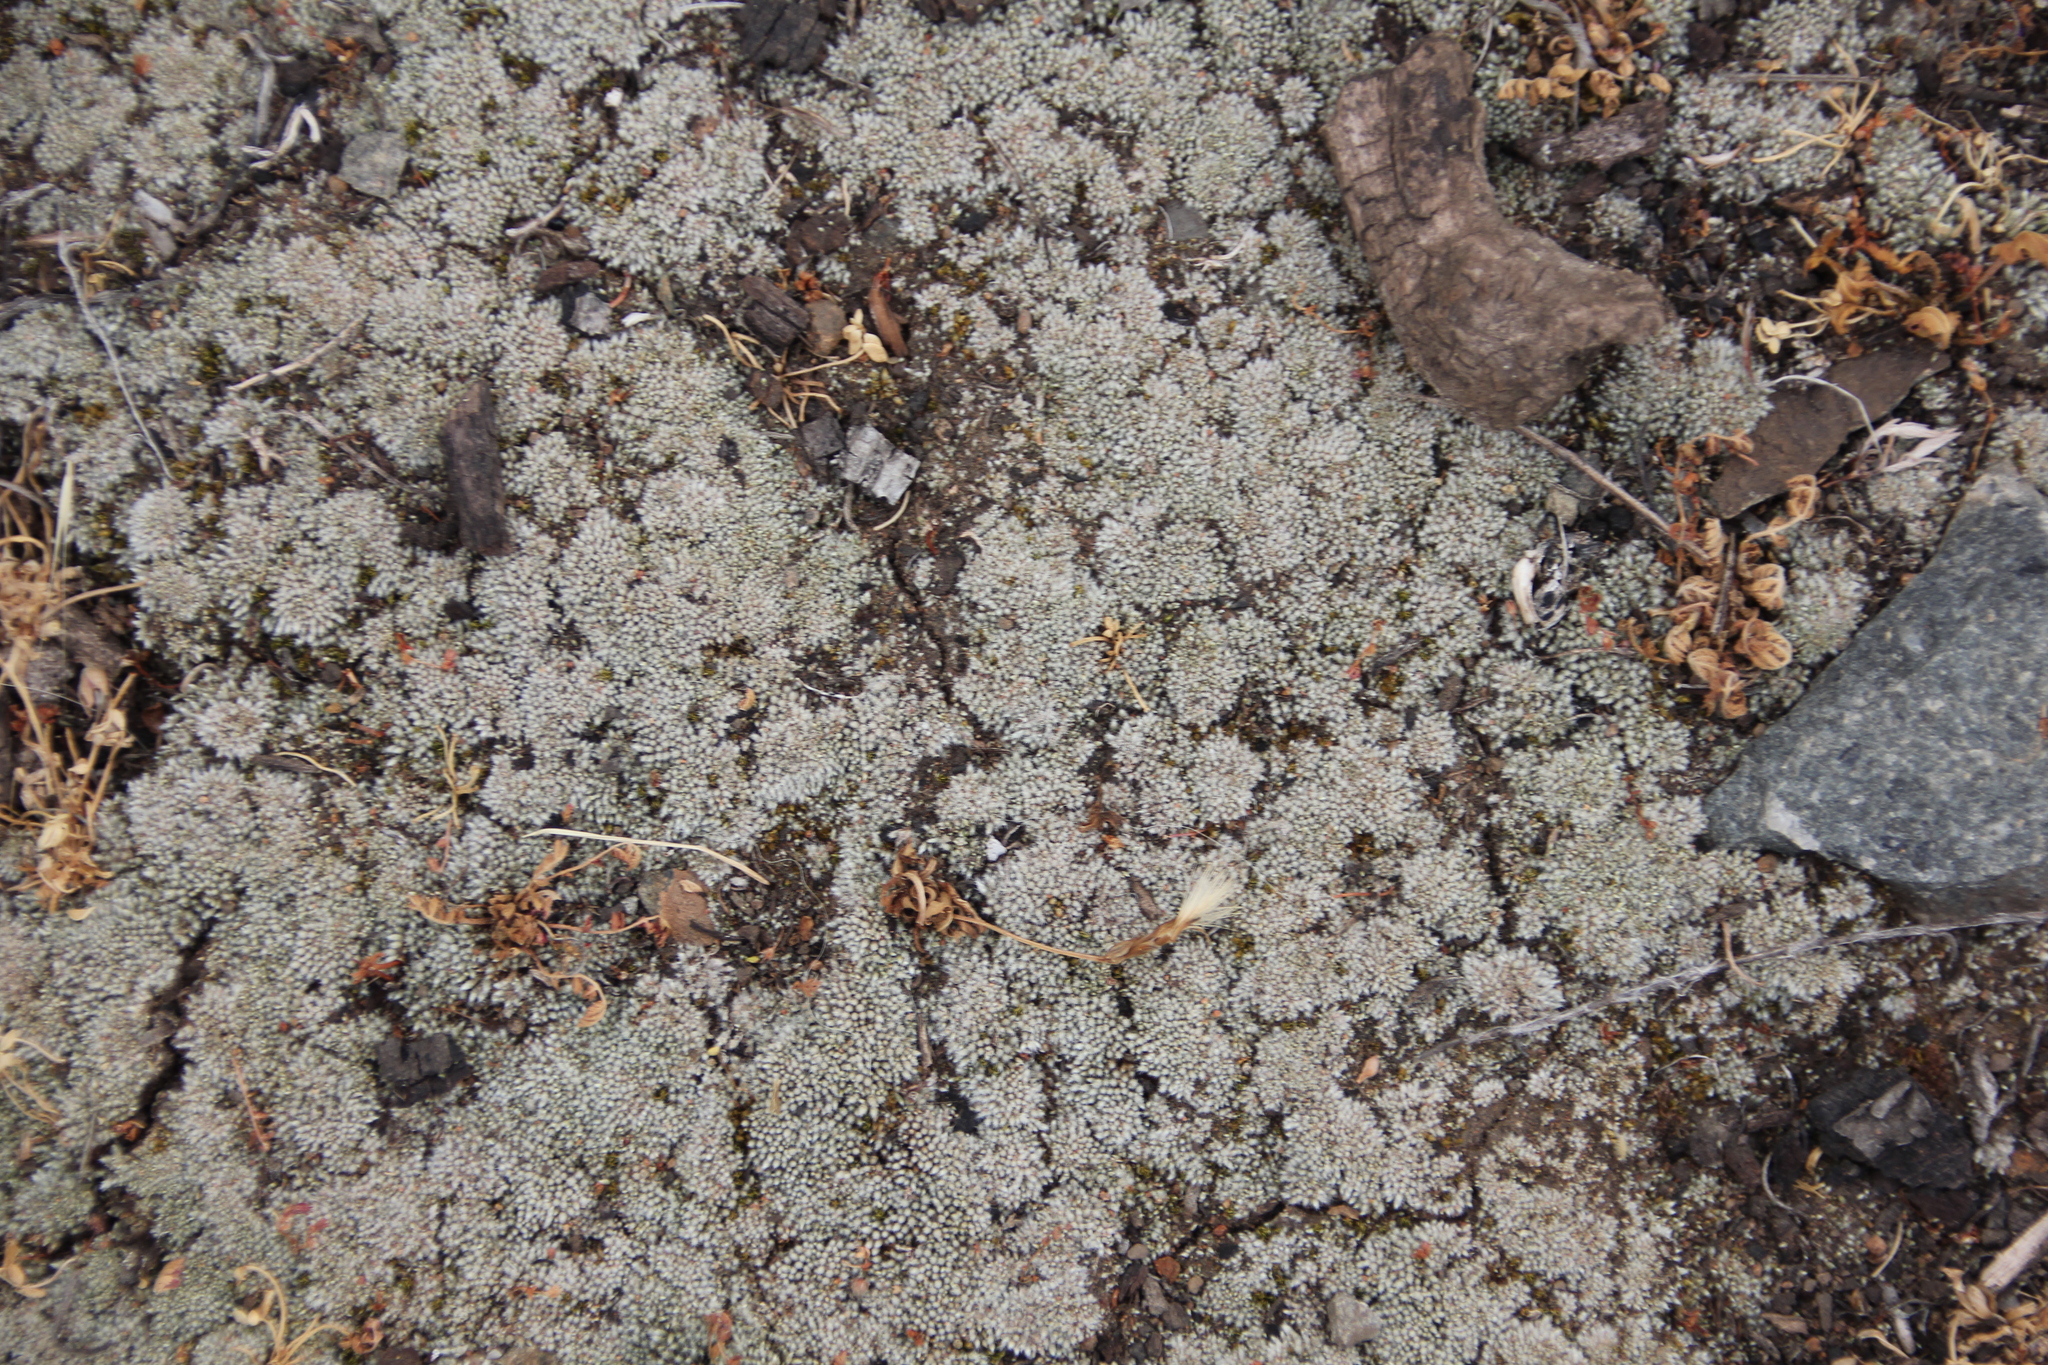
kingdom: Plantae
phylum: Bryophyta
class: Bryopsida
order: Bryales
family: Bryaceae
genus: Bryum
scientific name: Bryum argenteum
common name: Silver-moss
